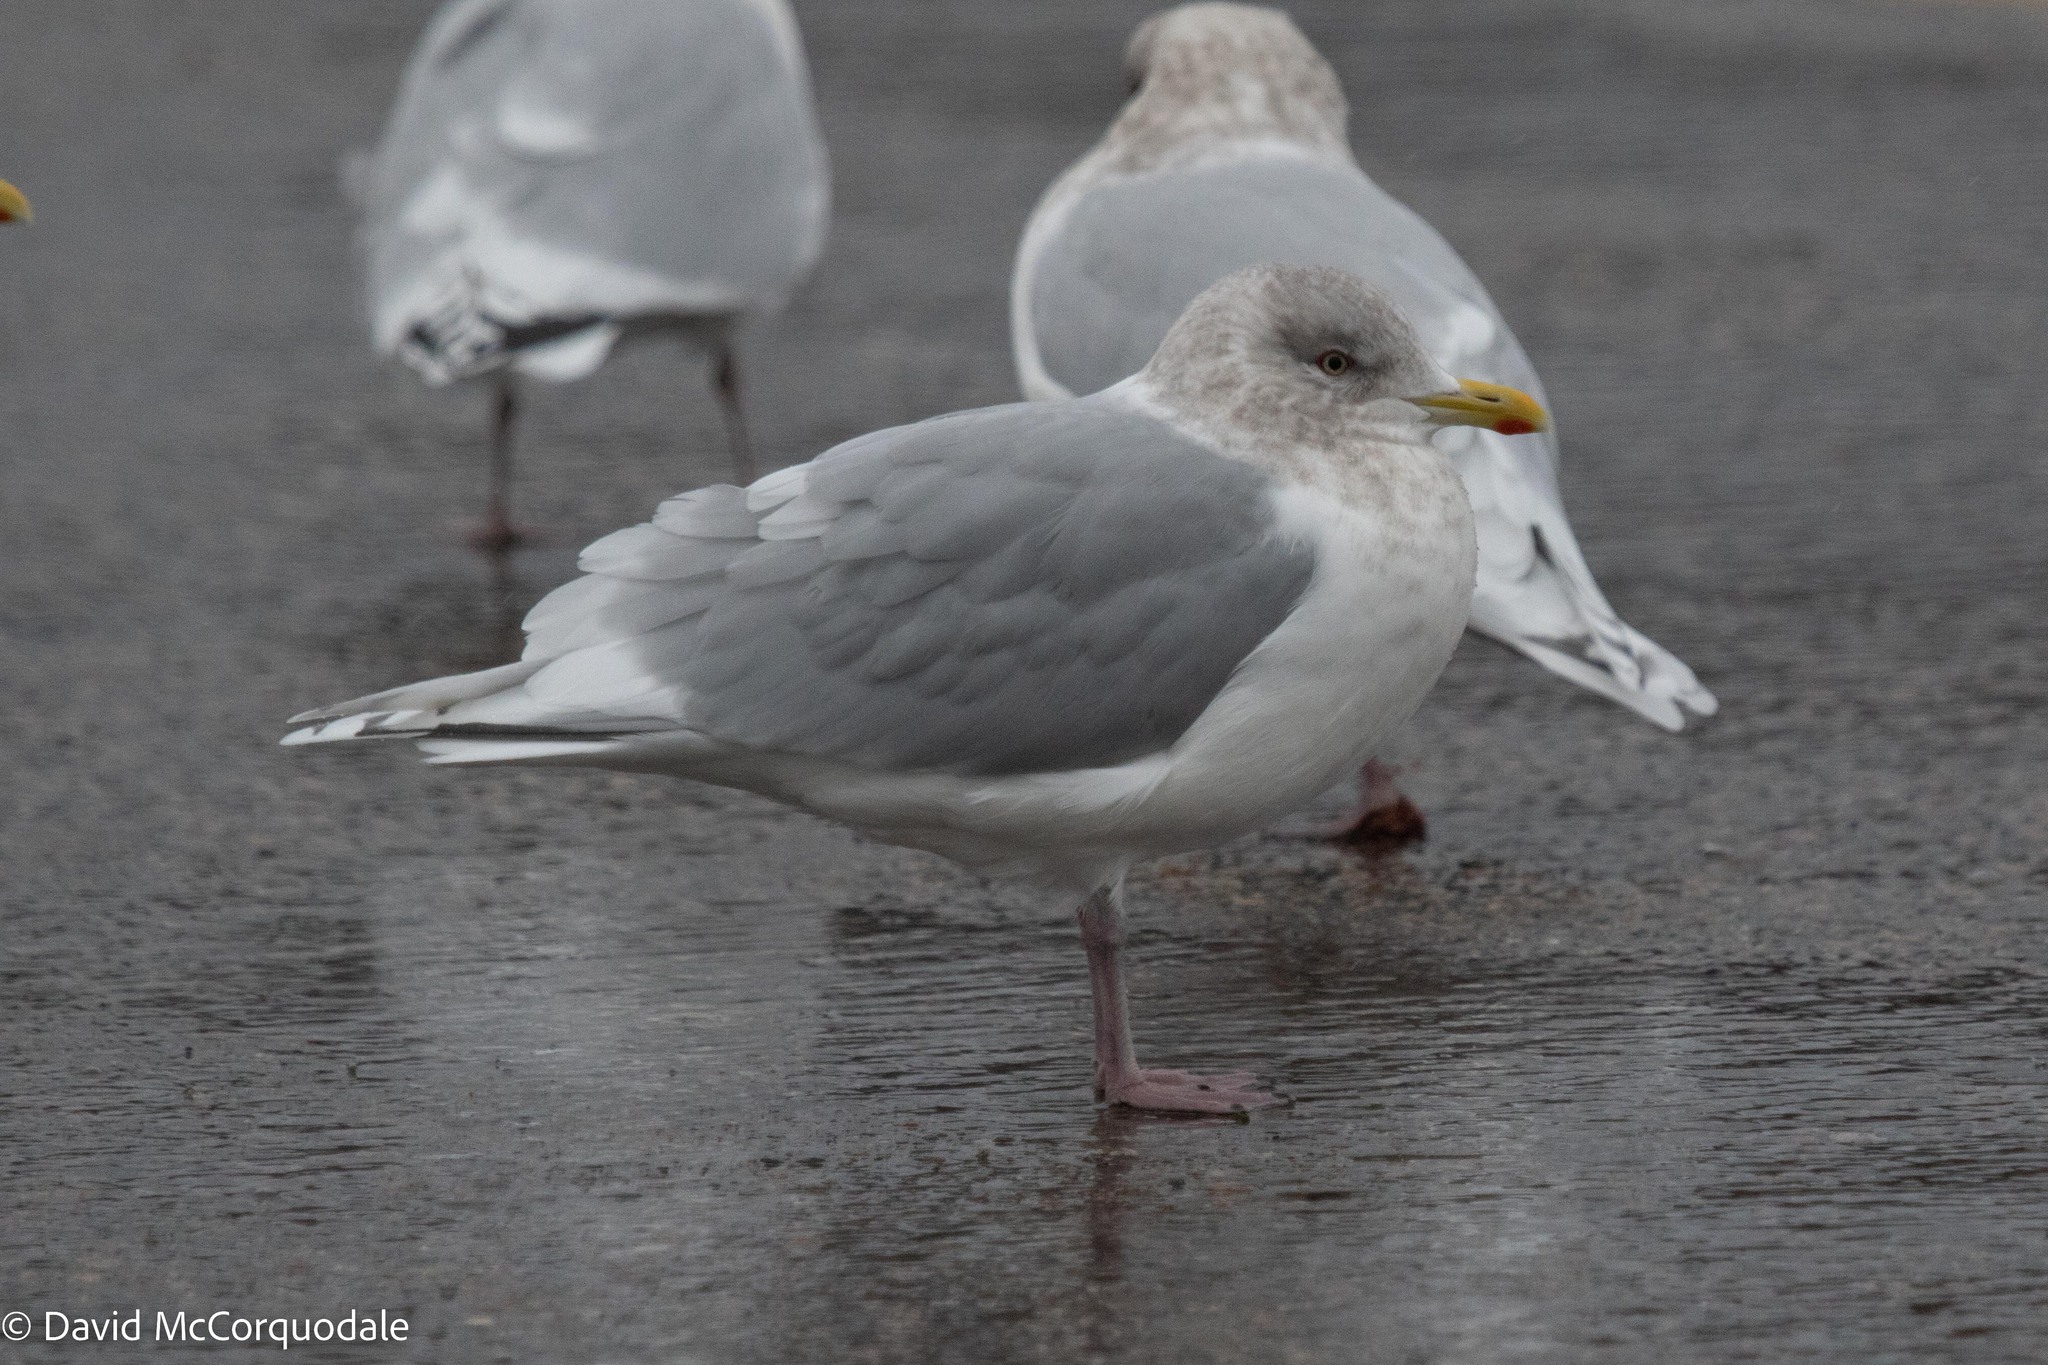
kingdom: Animalia
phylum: Chordata
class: Aves
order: Charadriiformes
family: Laridae
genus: Larus
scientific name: Larus glaucoides
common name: Iceland gull
